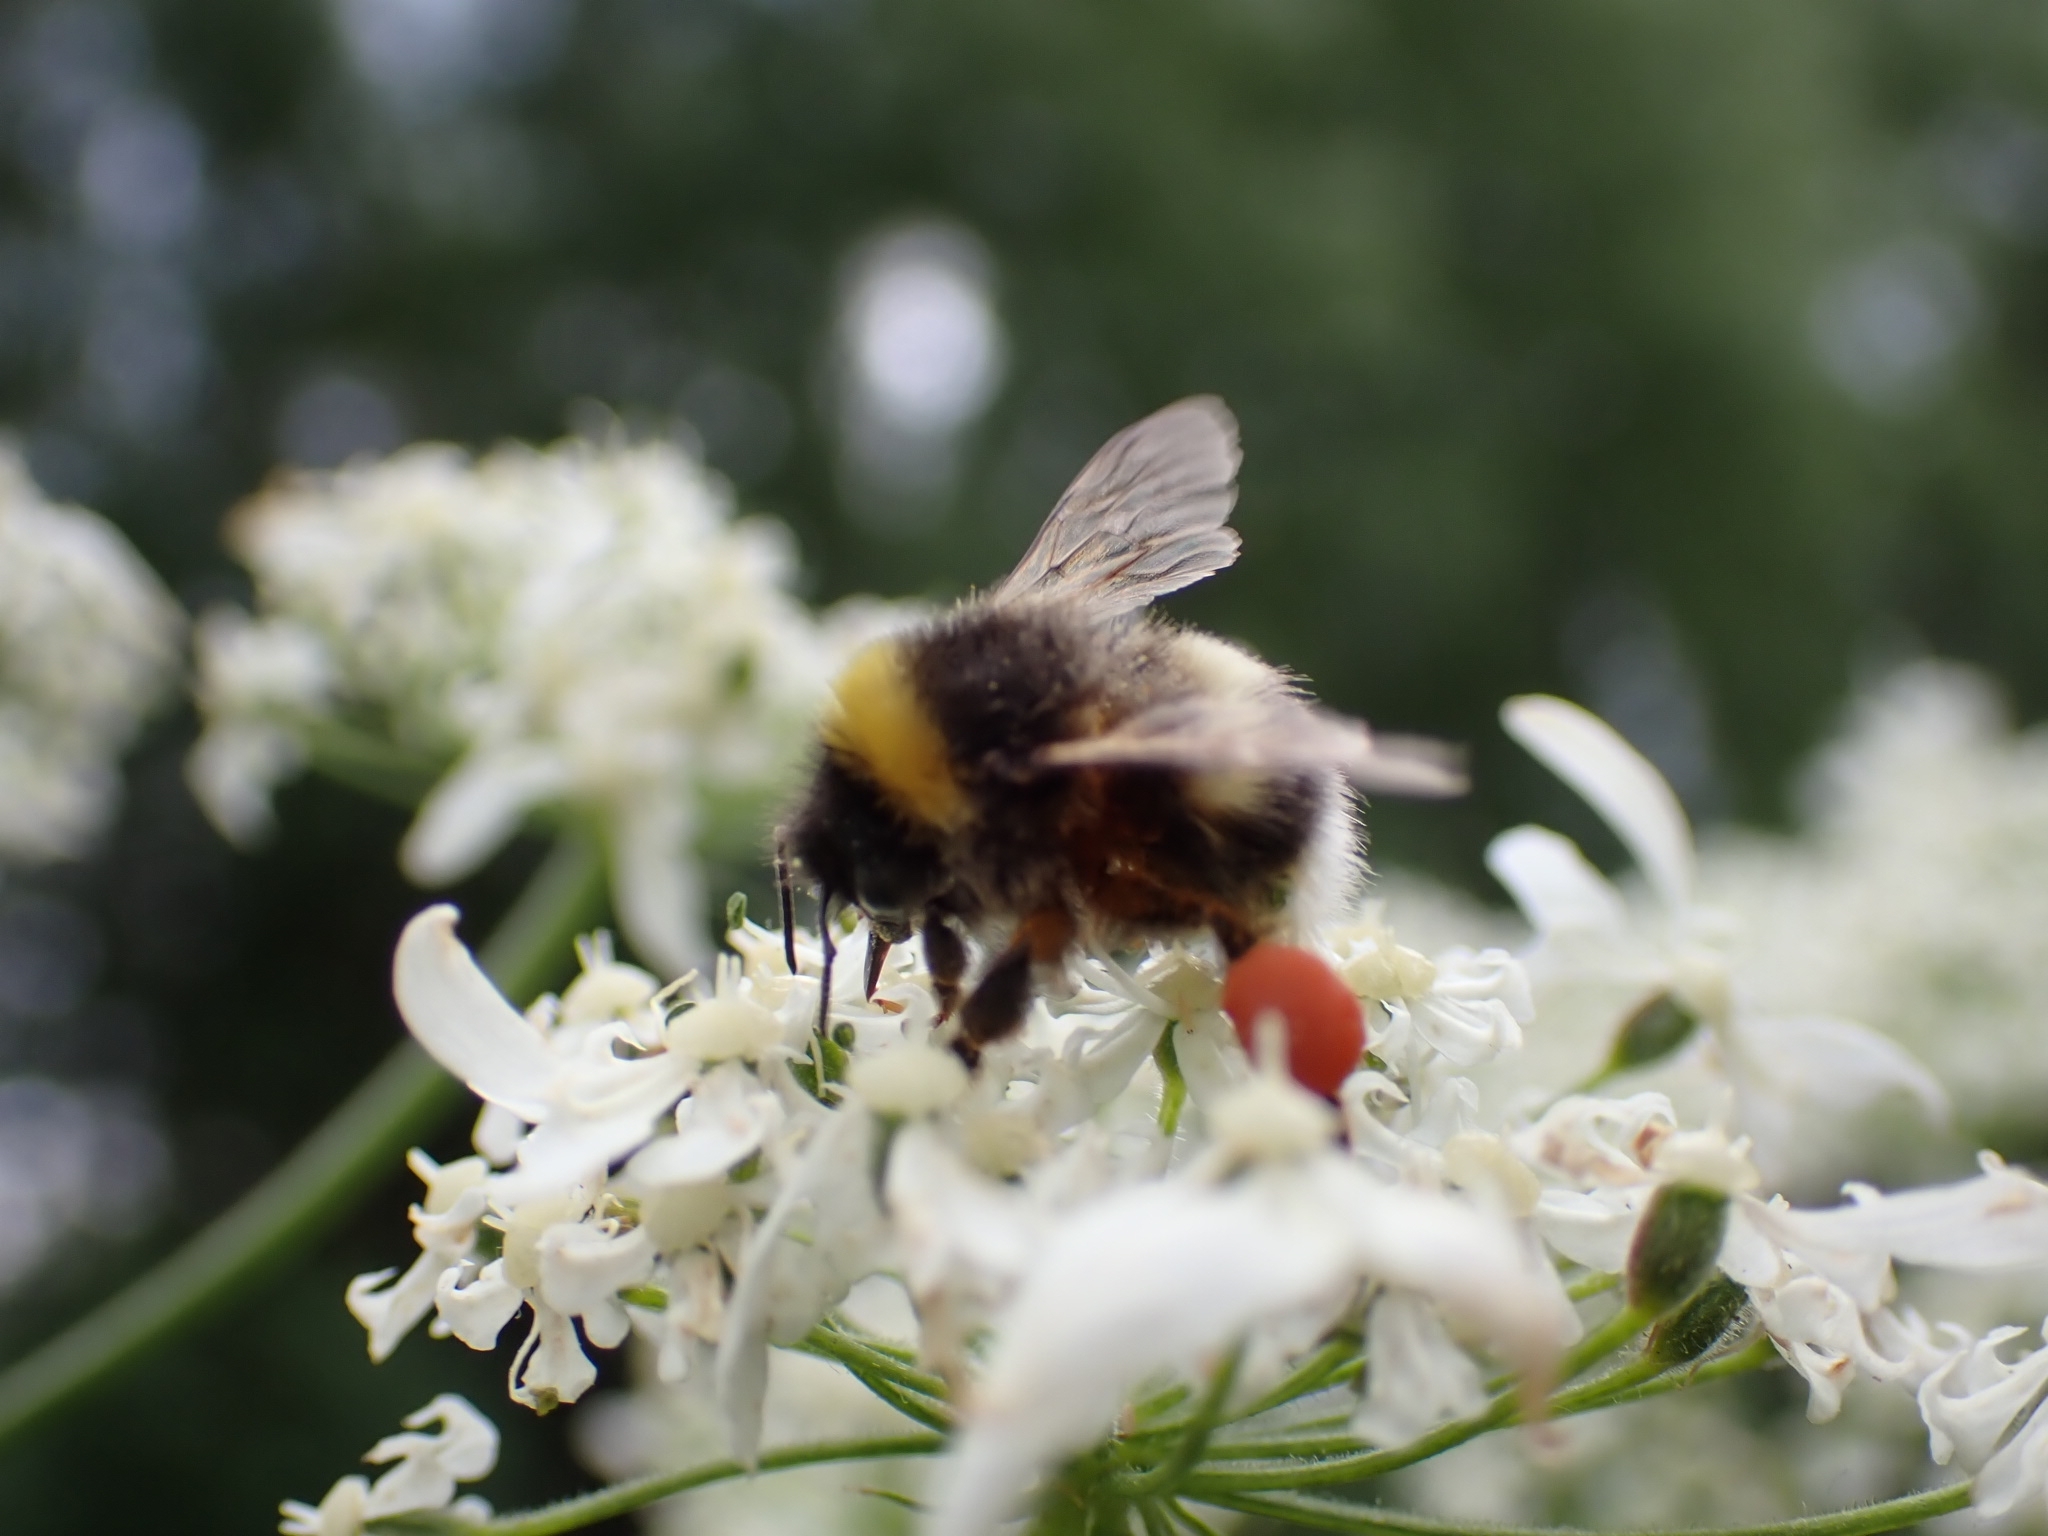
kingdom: Animalia
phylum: Arthropoda
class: Insecta
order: Hymenoptera
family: Apidae
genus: Bombus
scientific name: Bombus
